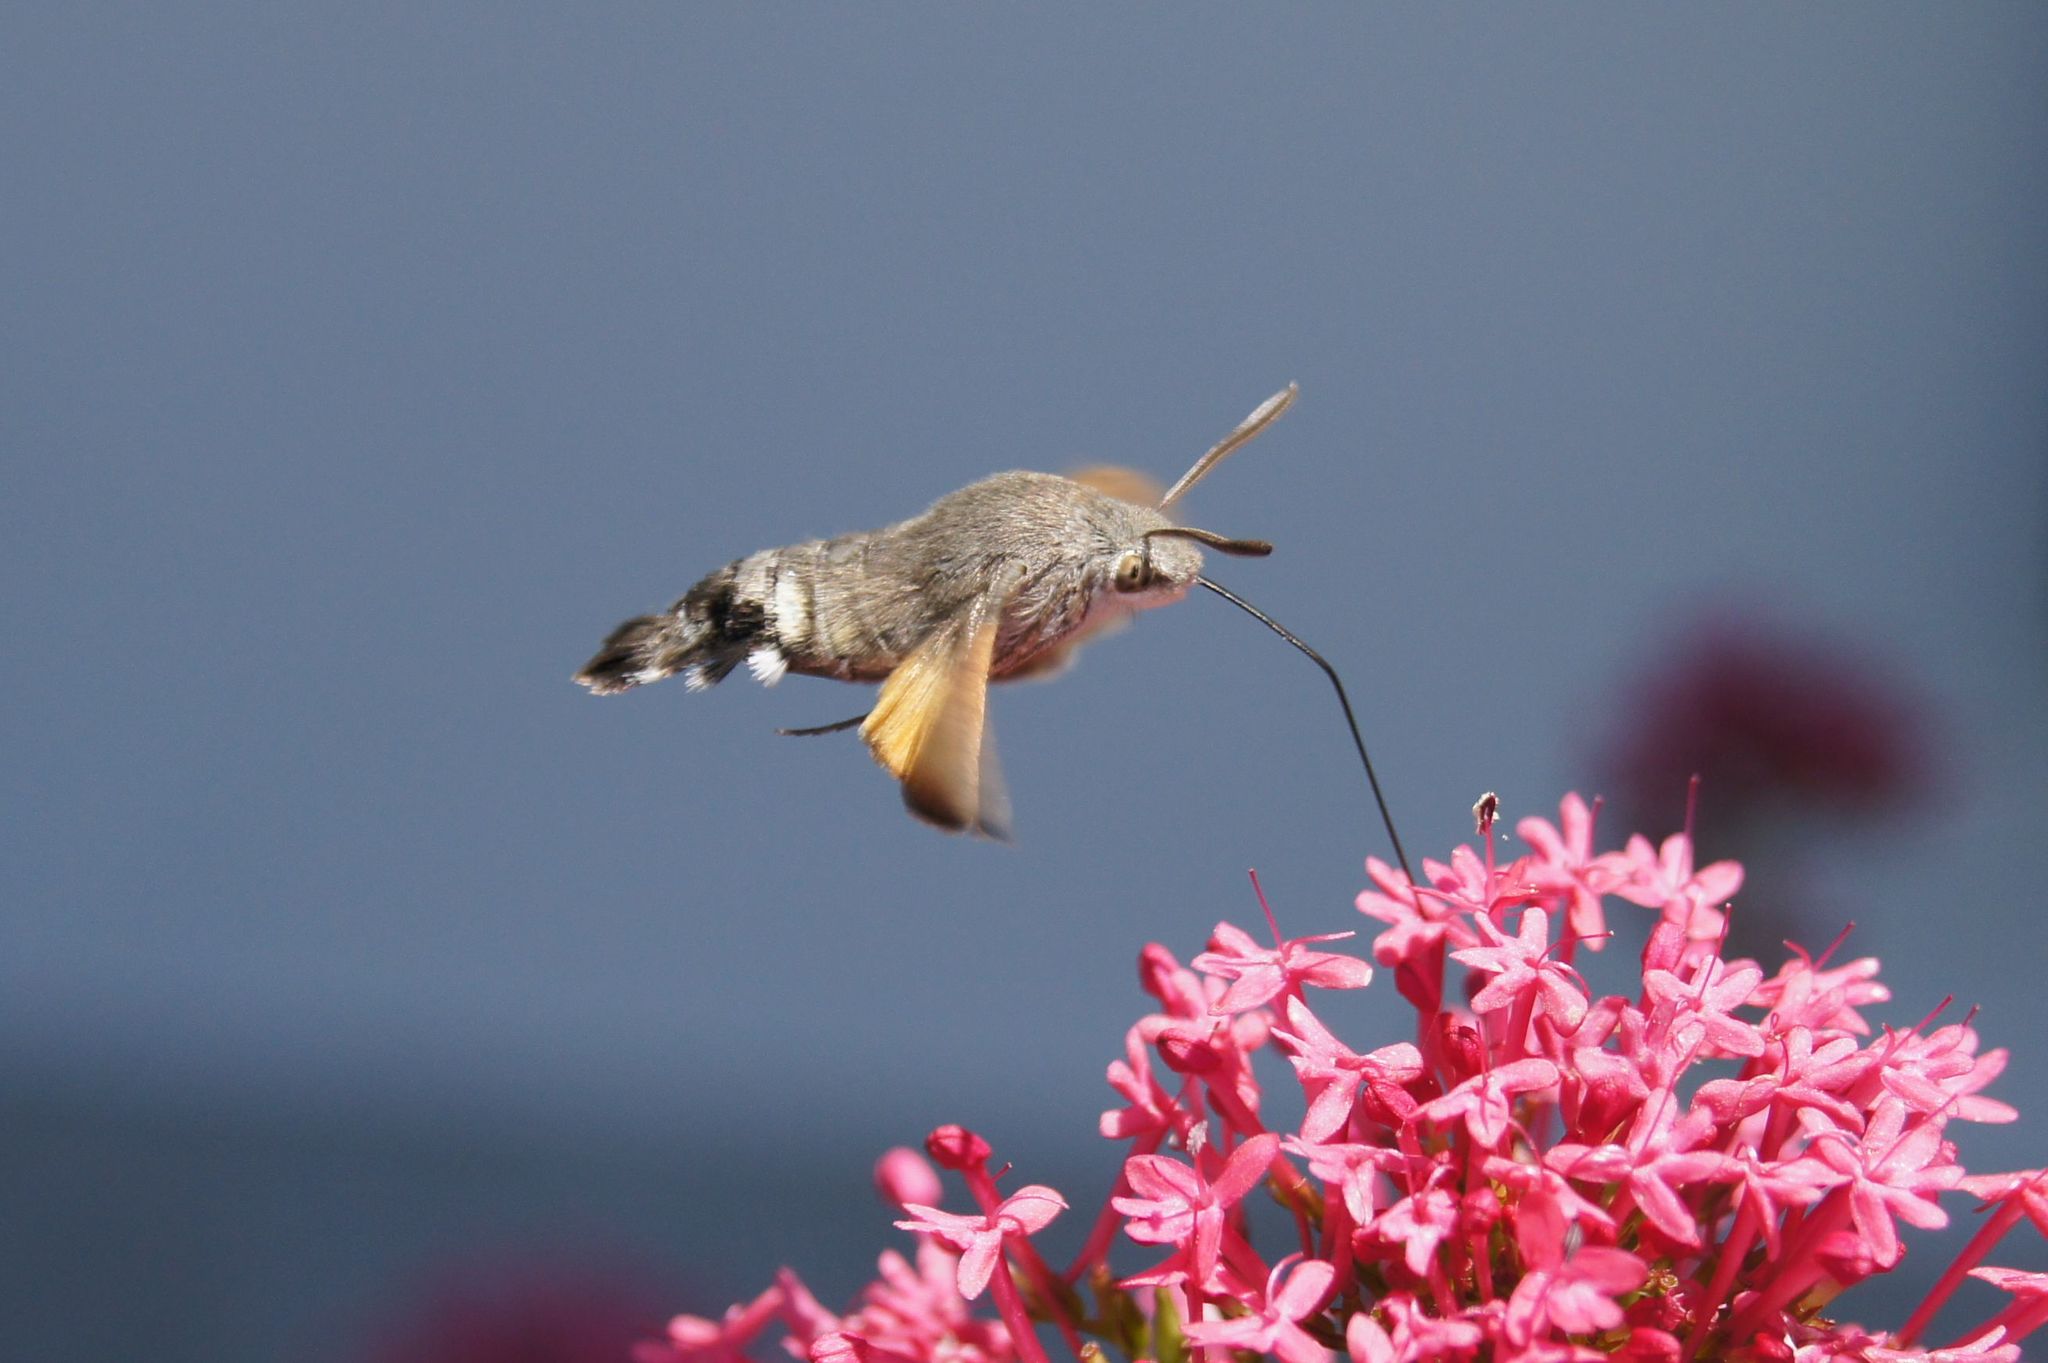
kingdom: Animalia
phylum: Arthropoda
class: Insecta
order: Lepidoptera
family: Sphingidae
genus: Macroglossum
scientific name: Macroglossum stellatarum
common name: Humming-bird hawk-moth
